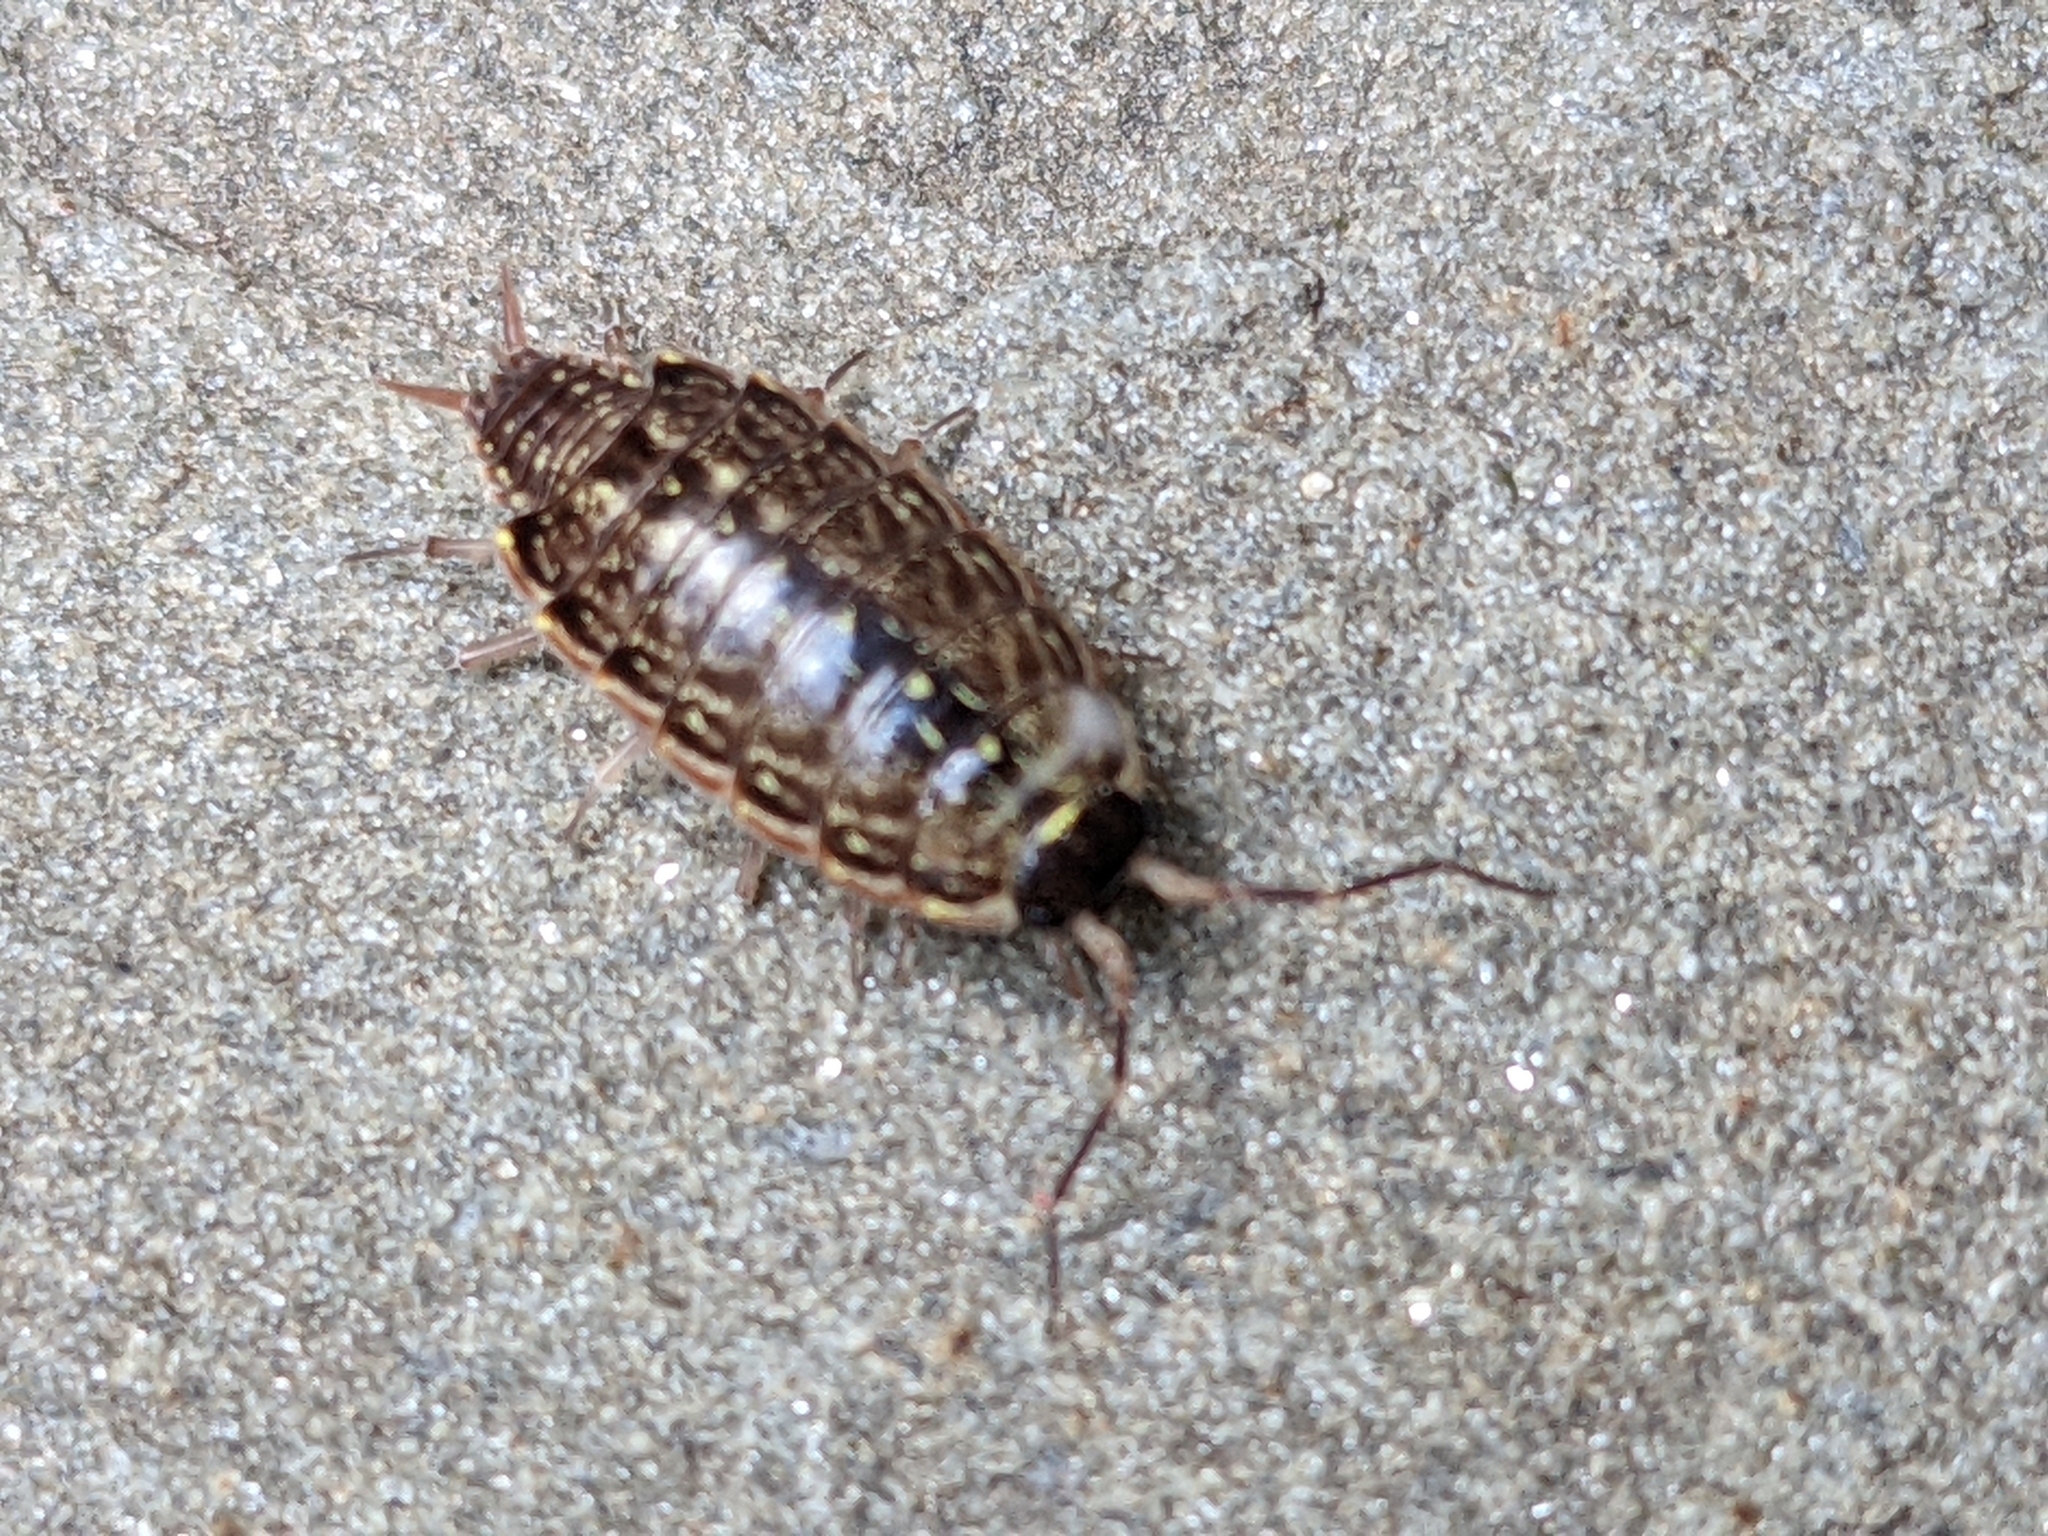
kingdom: Animalia
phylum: Arthropoda
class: Malacostraca
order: Isopoda
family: Philosciidae
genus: Philoscia
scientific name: Philoscia muscorum
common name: Common striped woodlouse
